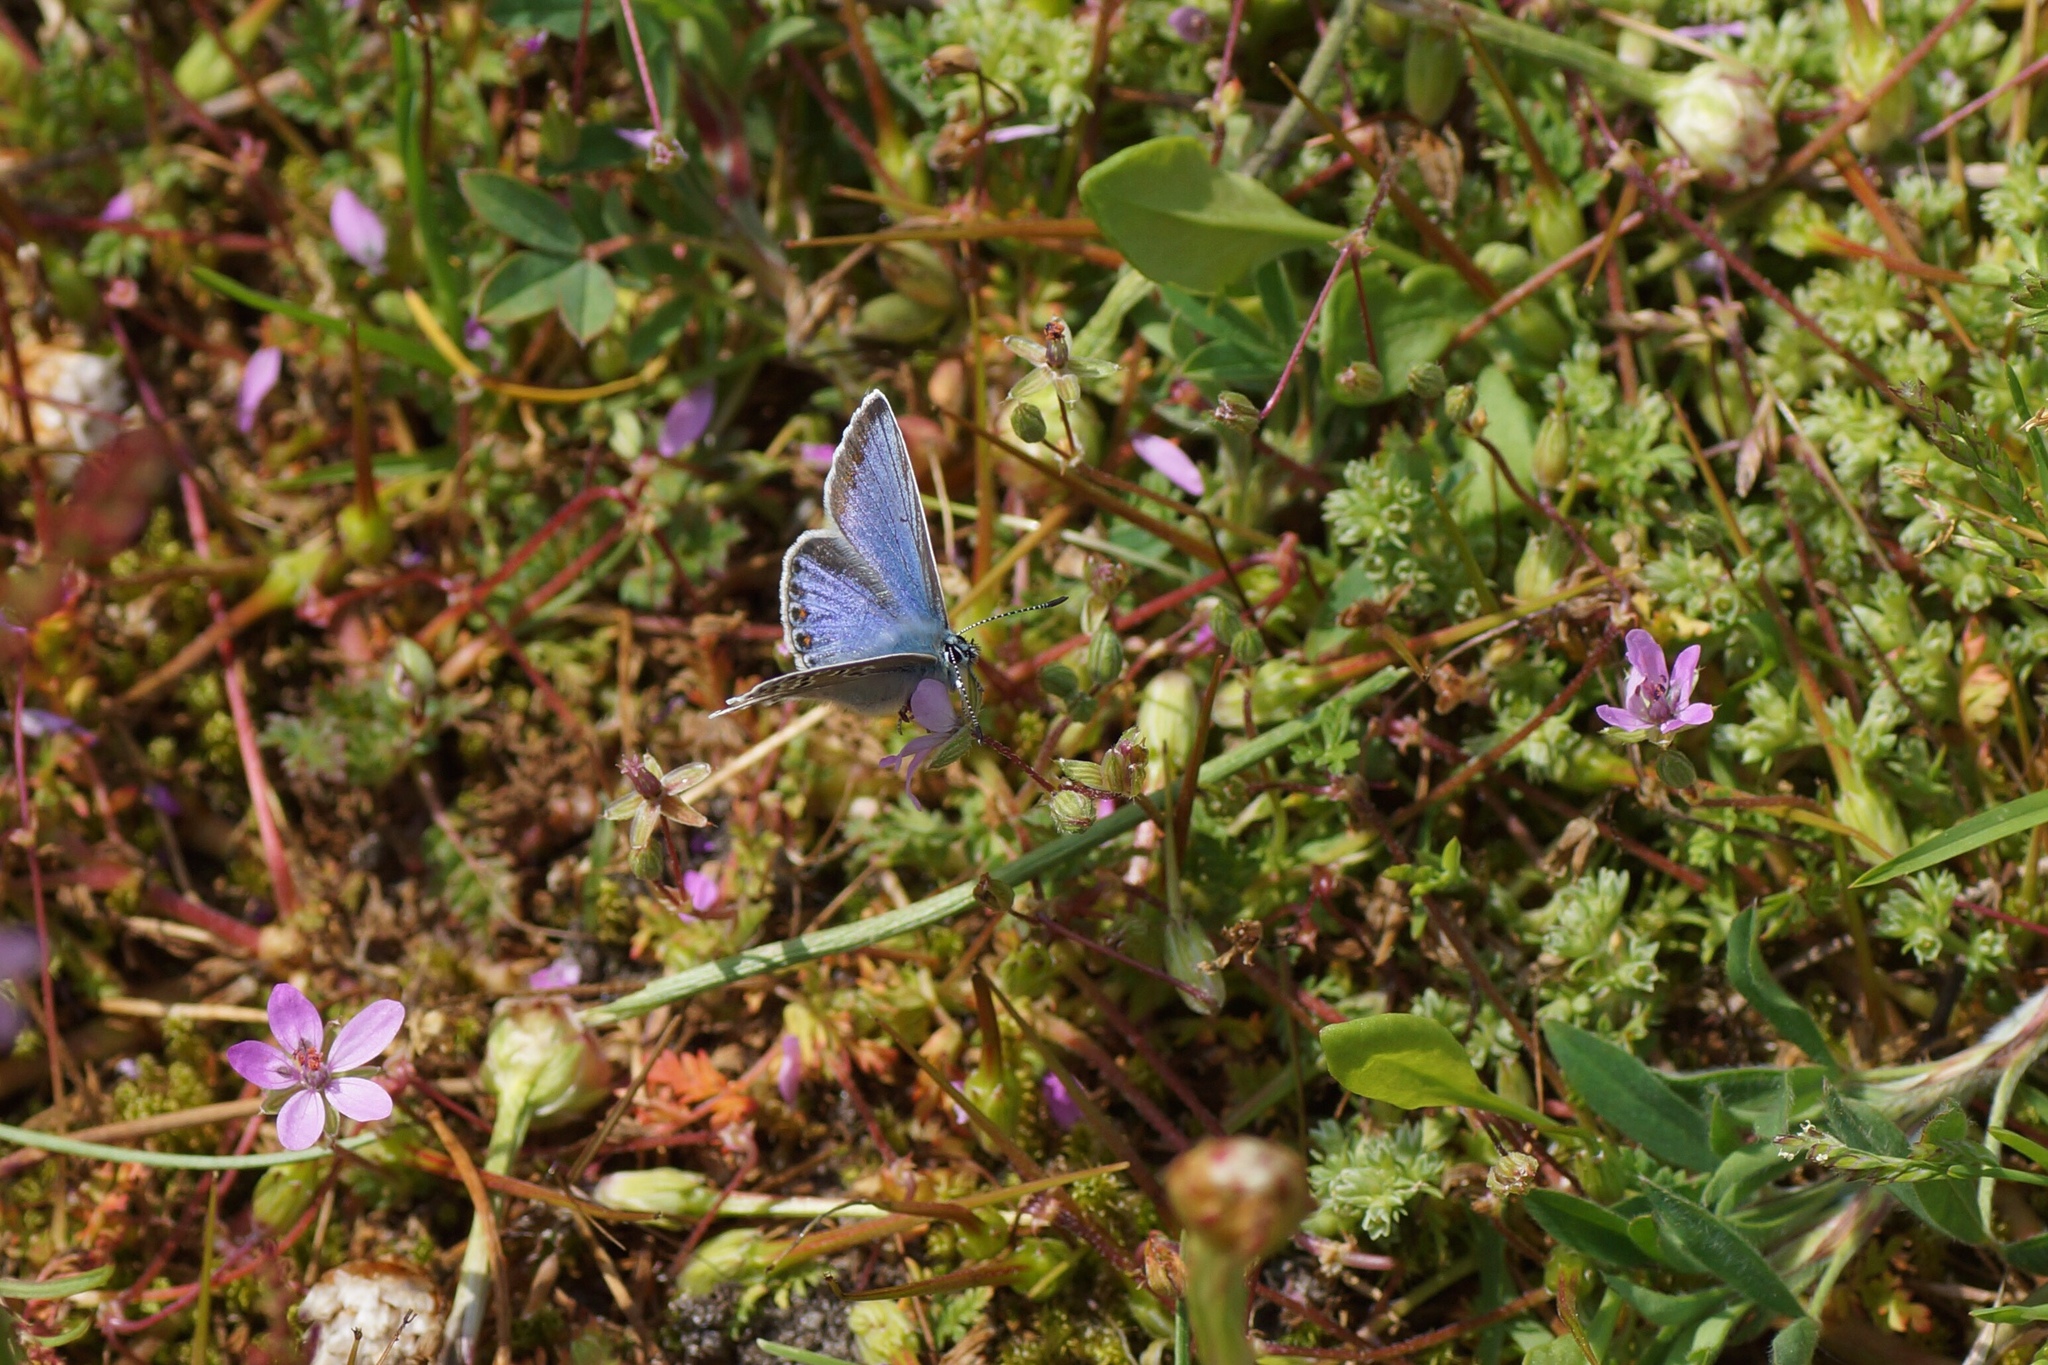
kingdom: Animalia
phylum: Arthropoda
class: Insecta
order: Lepidoptera
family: Lycaenidae
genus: Polyommatus
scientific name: Polyommatus icarus
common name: Common blue
